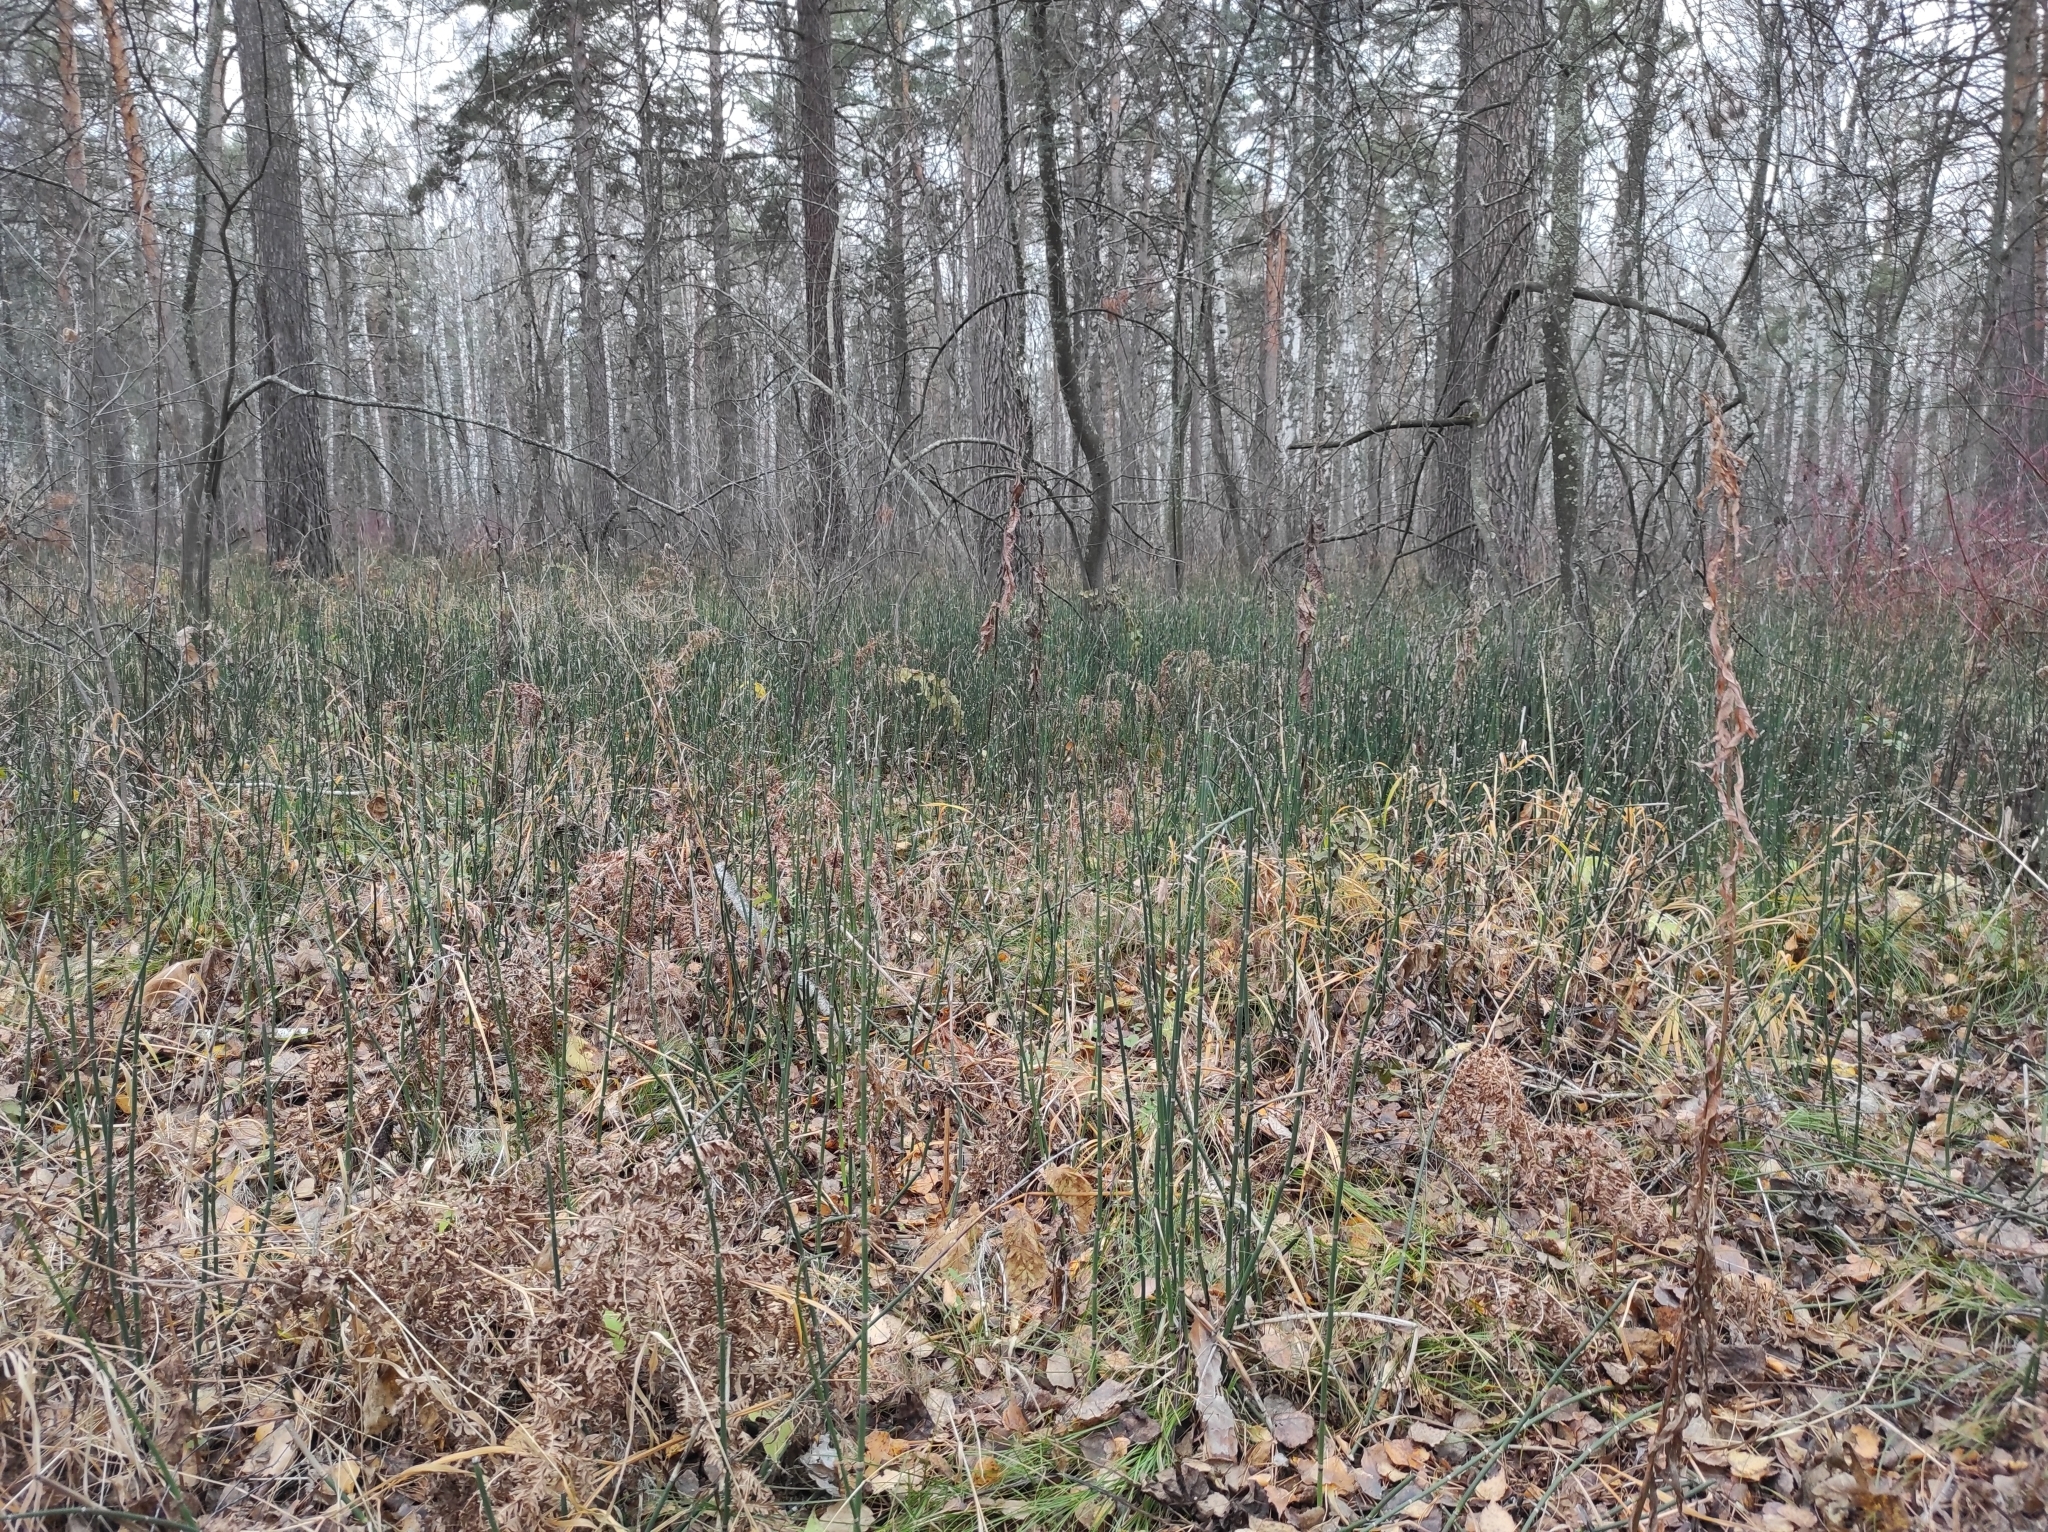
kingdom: Plantae
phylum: Tracheophyta
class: Polypodiopsida
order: Equisetales
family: Equisetaceae
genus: Equisetum
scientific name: Equisetum hyemale
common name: Rough horsetail
